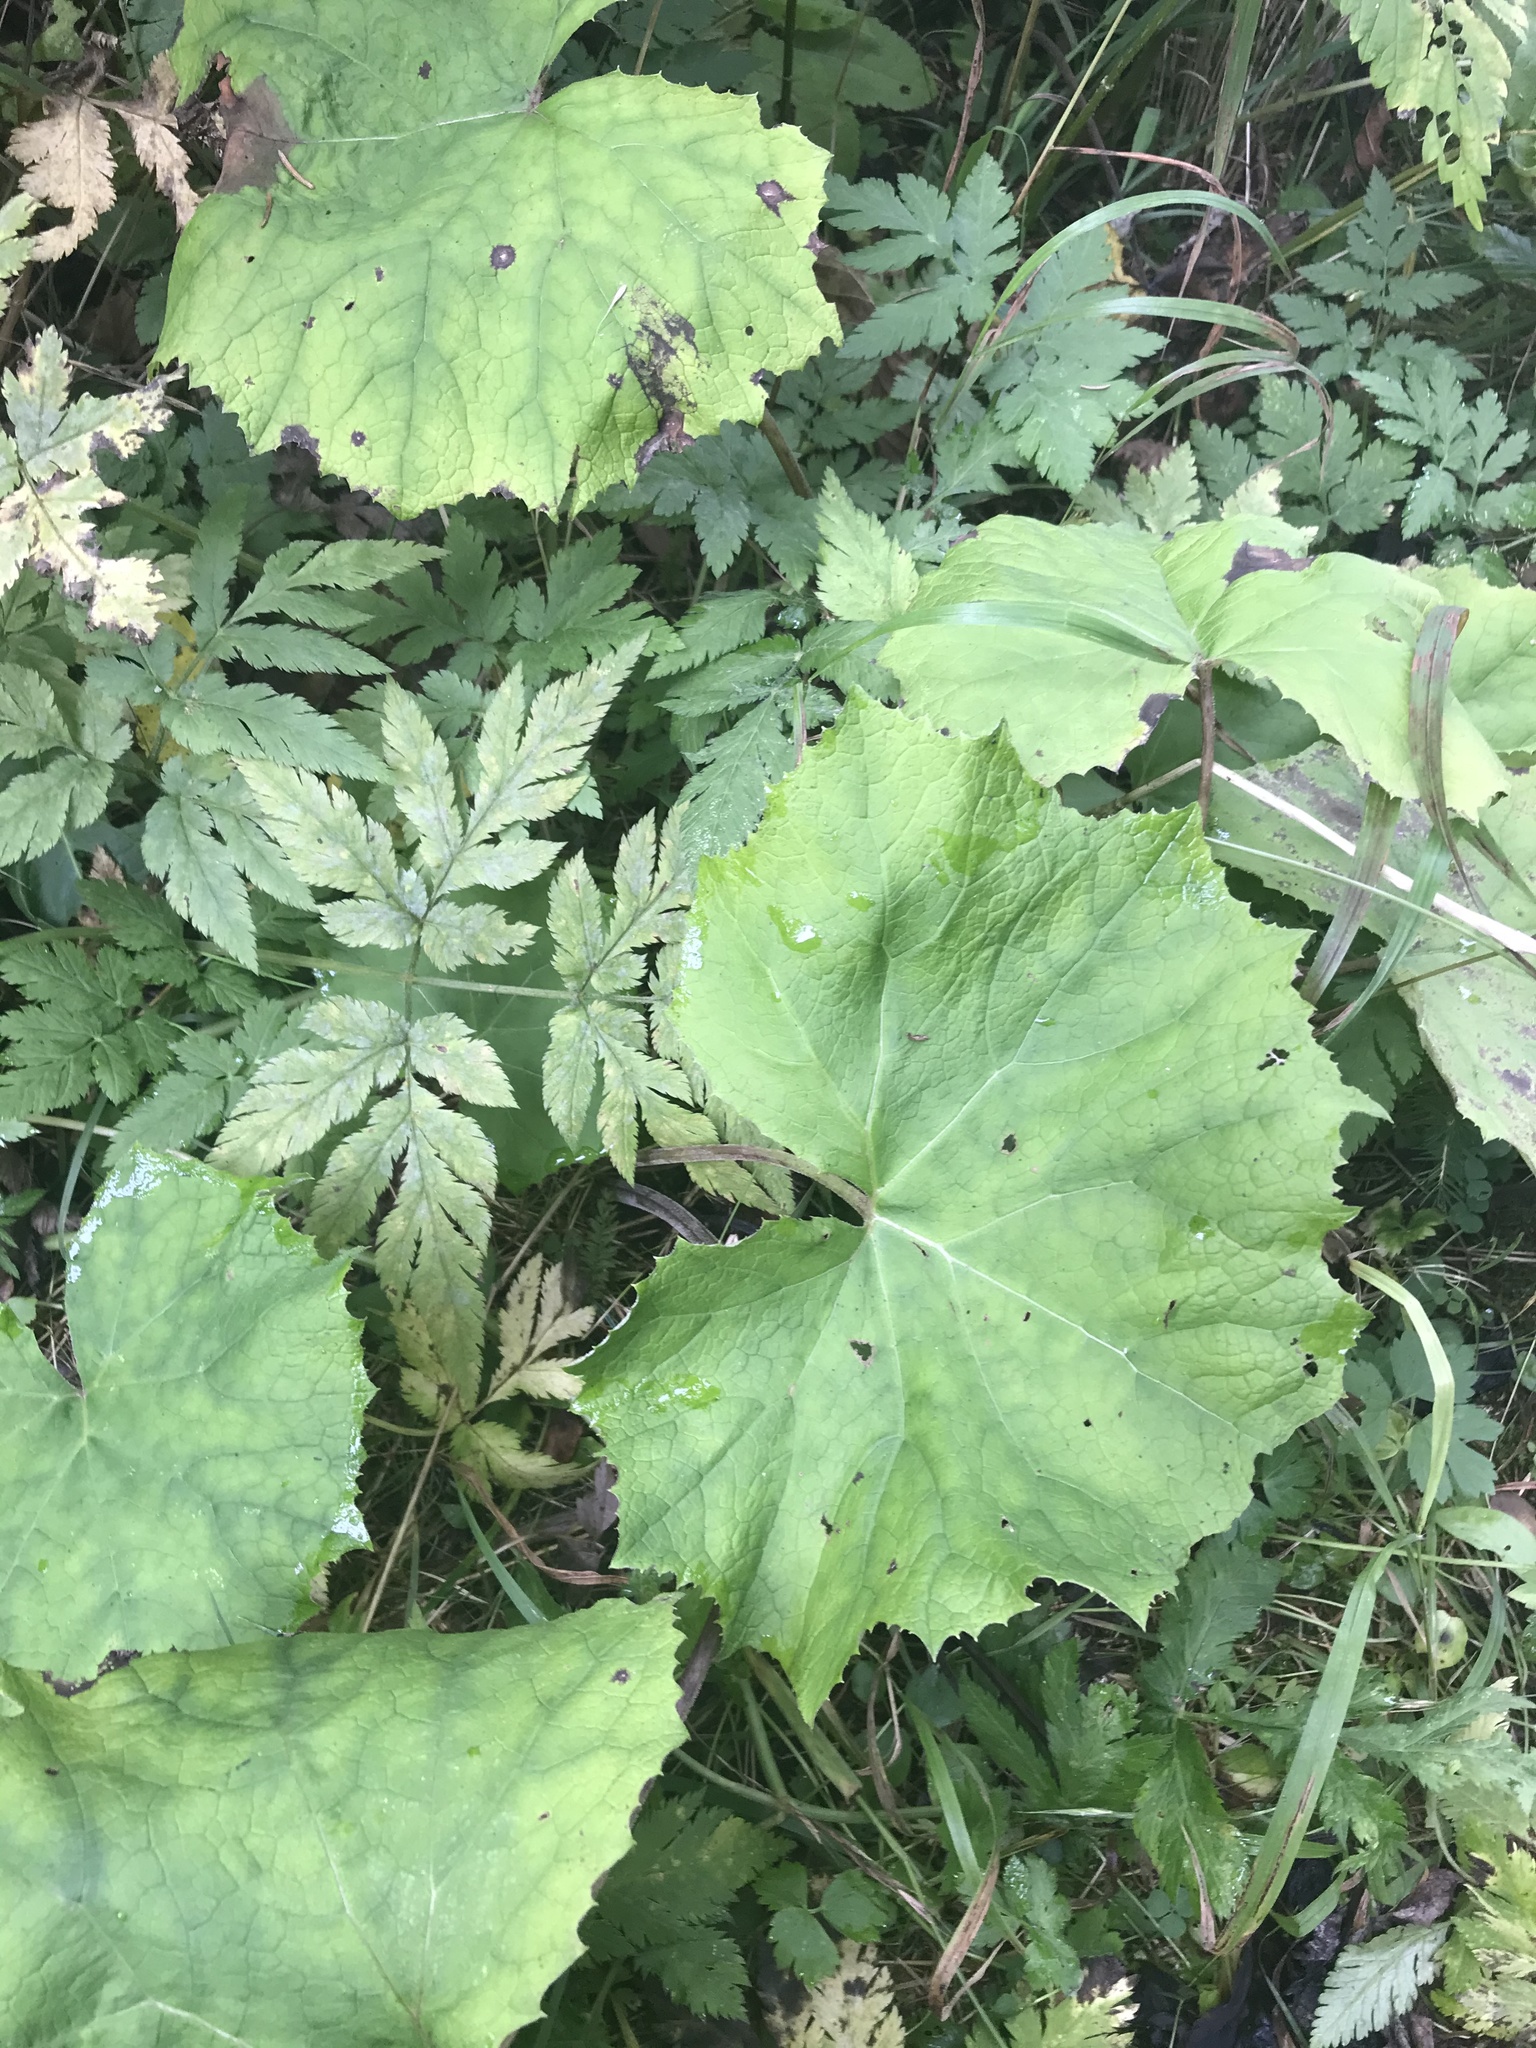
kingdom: Plantae
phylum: Tracheophyta
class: Magnoliopsida
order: Asterales
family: Asteraceae
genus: Petasites
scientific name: Petasites albus
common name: White butterbur
